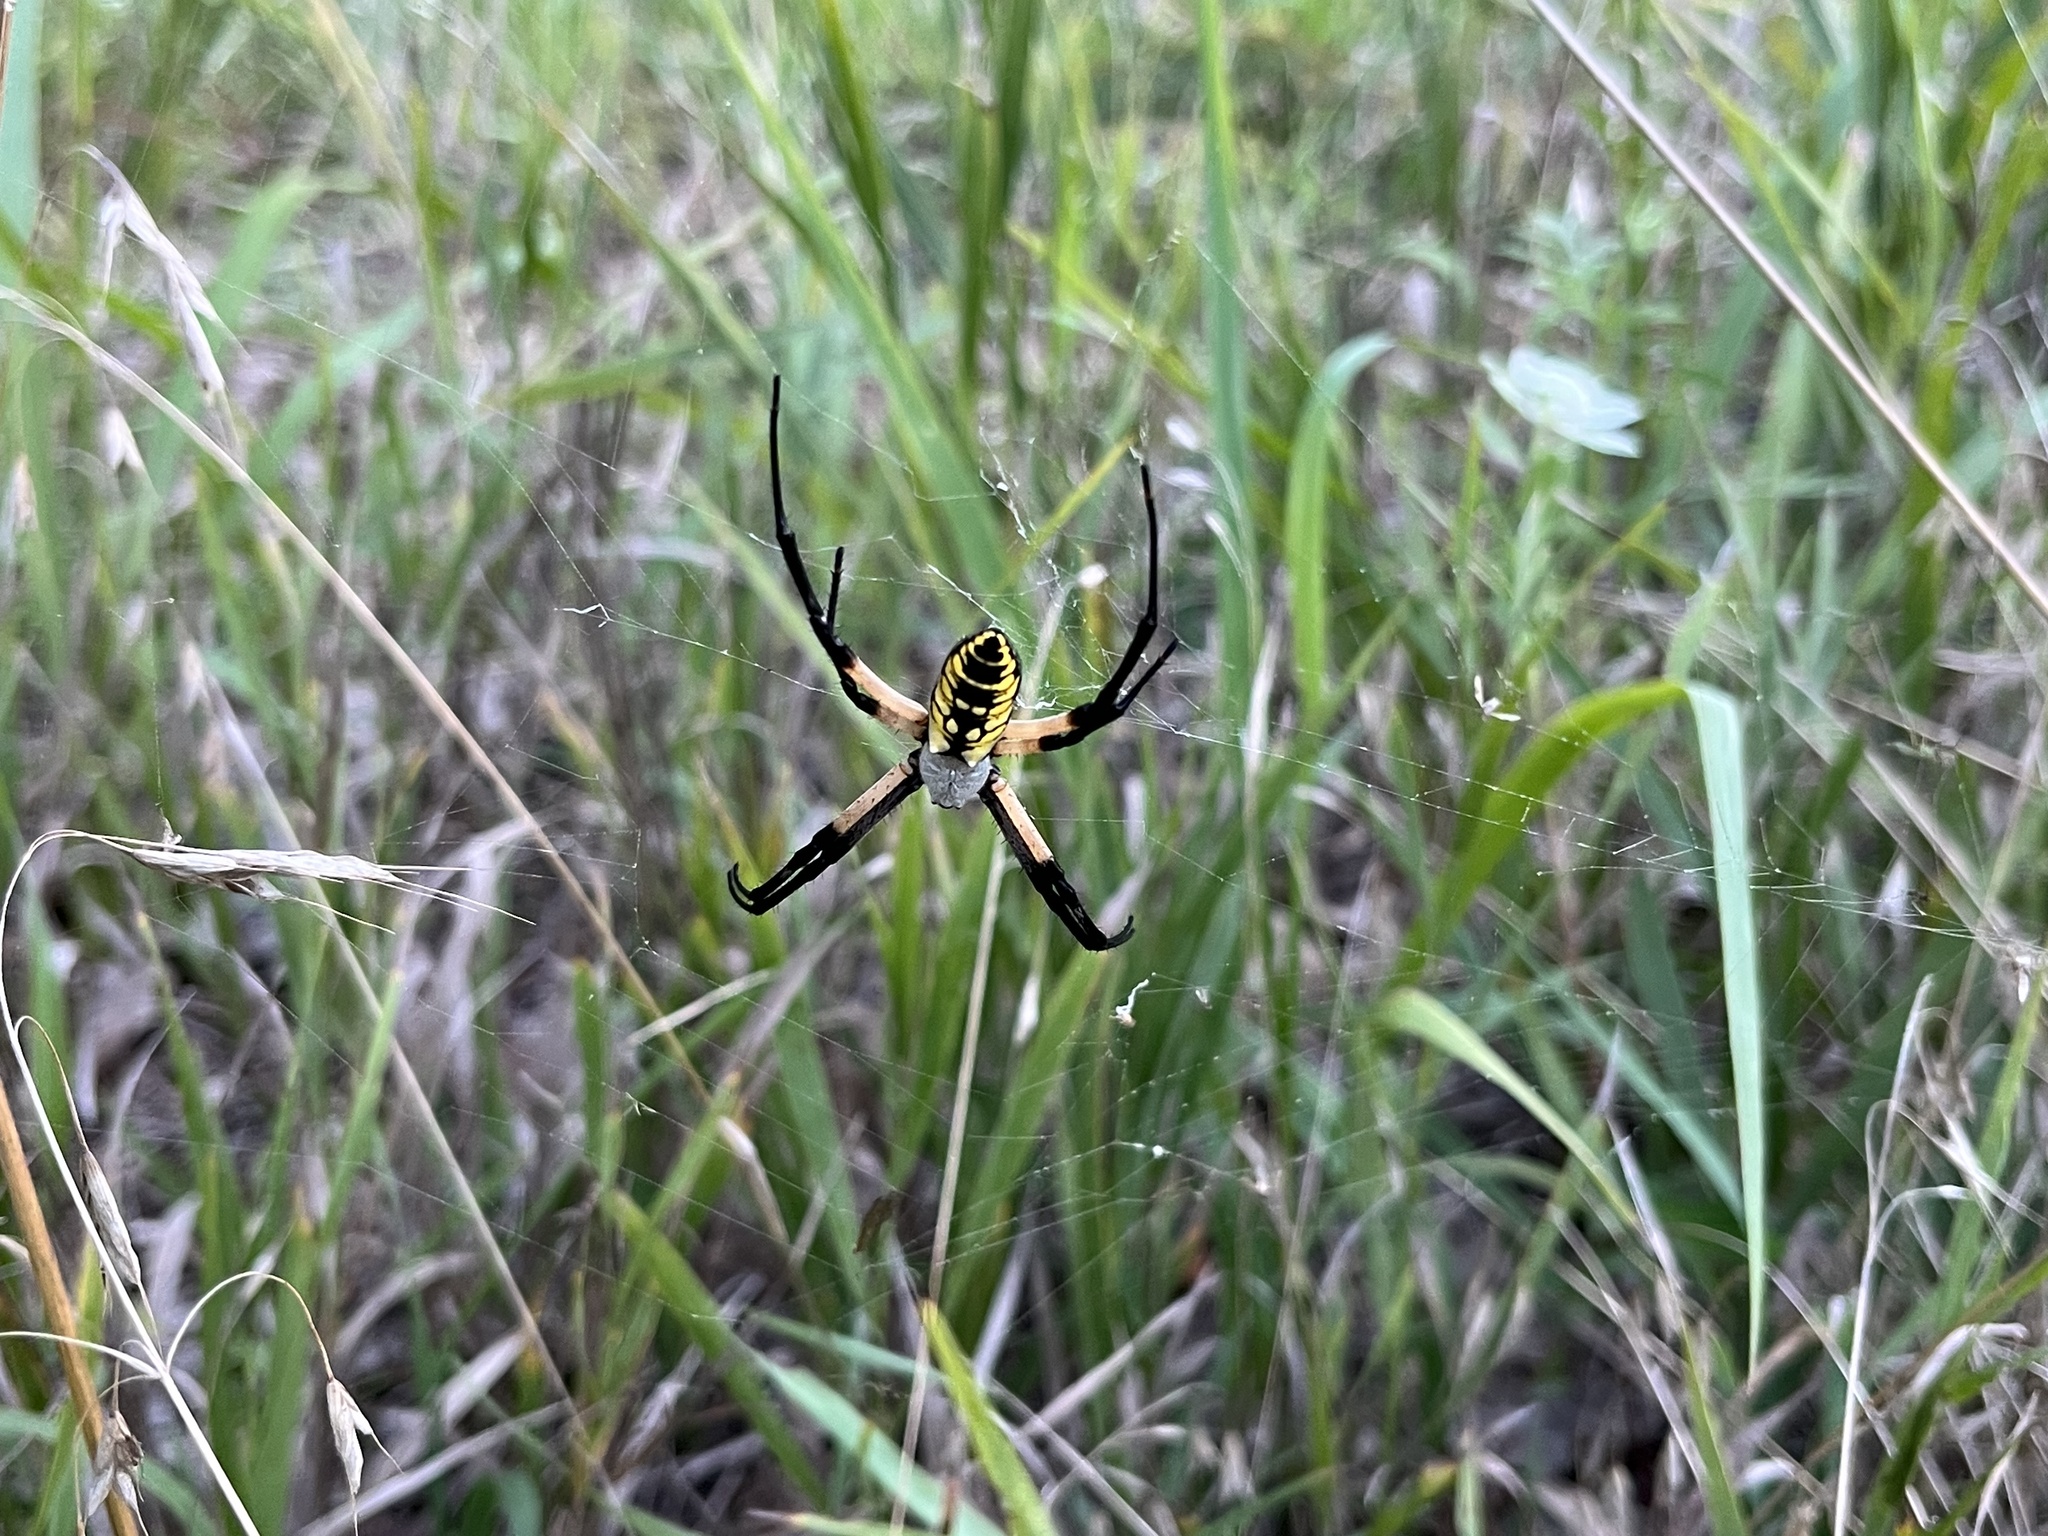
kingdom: Animalia
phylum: Arthropoda
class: Arachnida
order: Araneae
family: Araneidae
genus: Argiope
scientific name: Argiope aurantia
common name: Orb weavers
